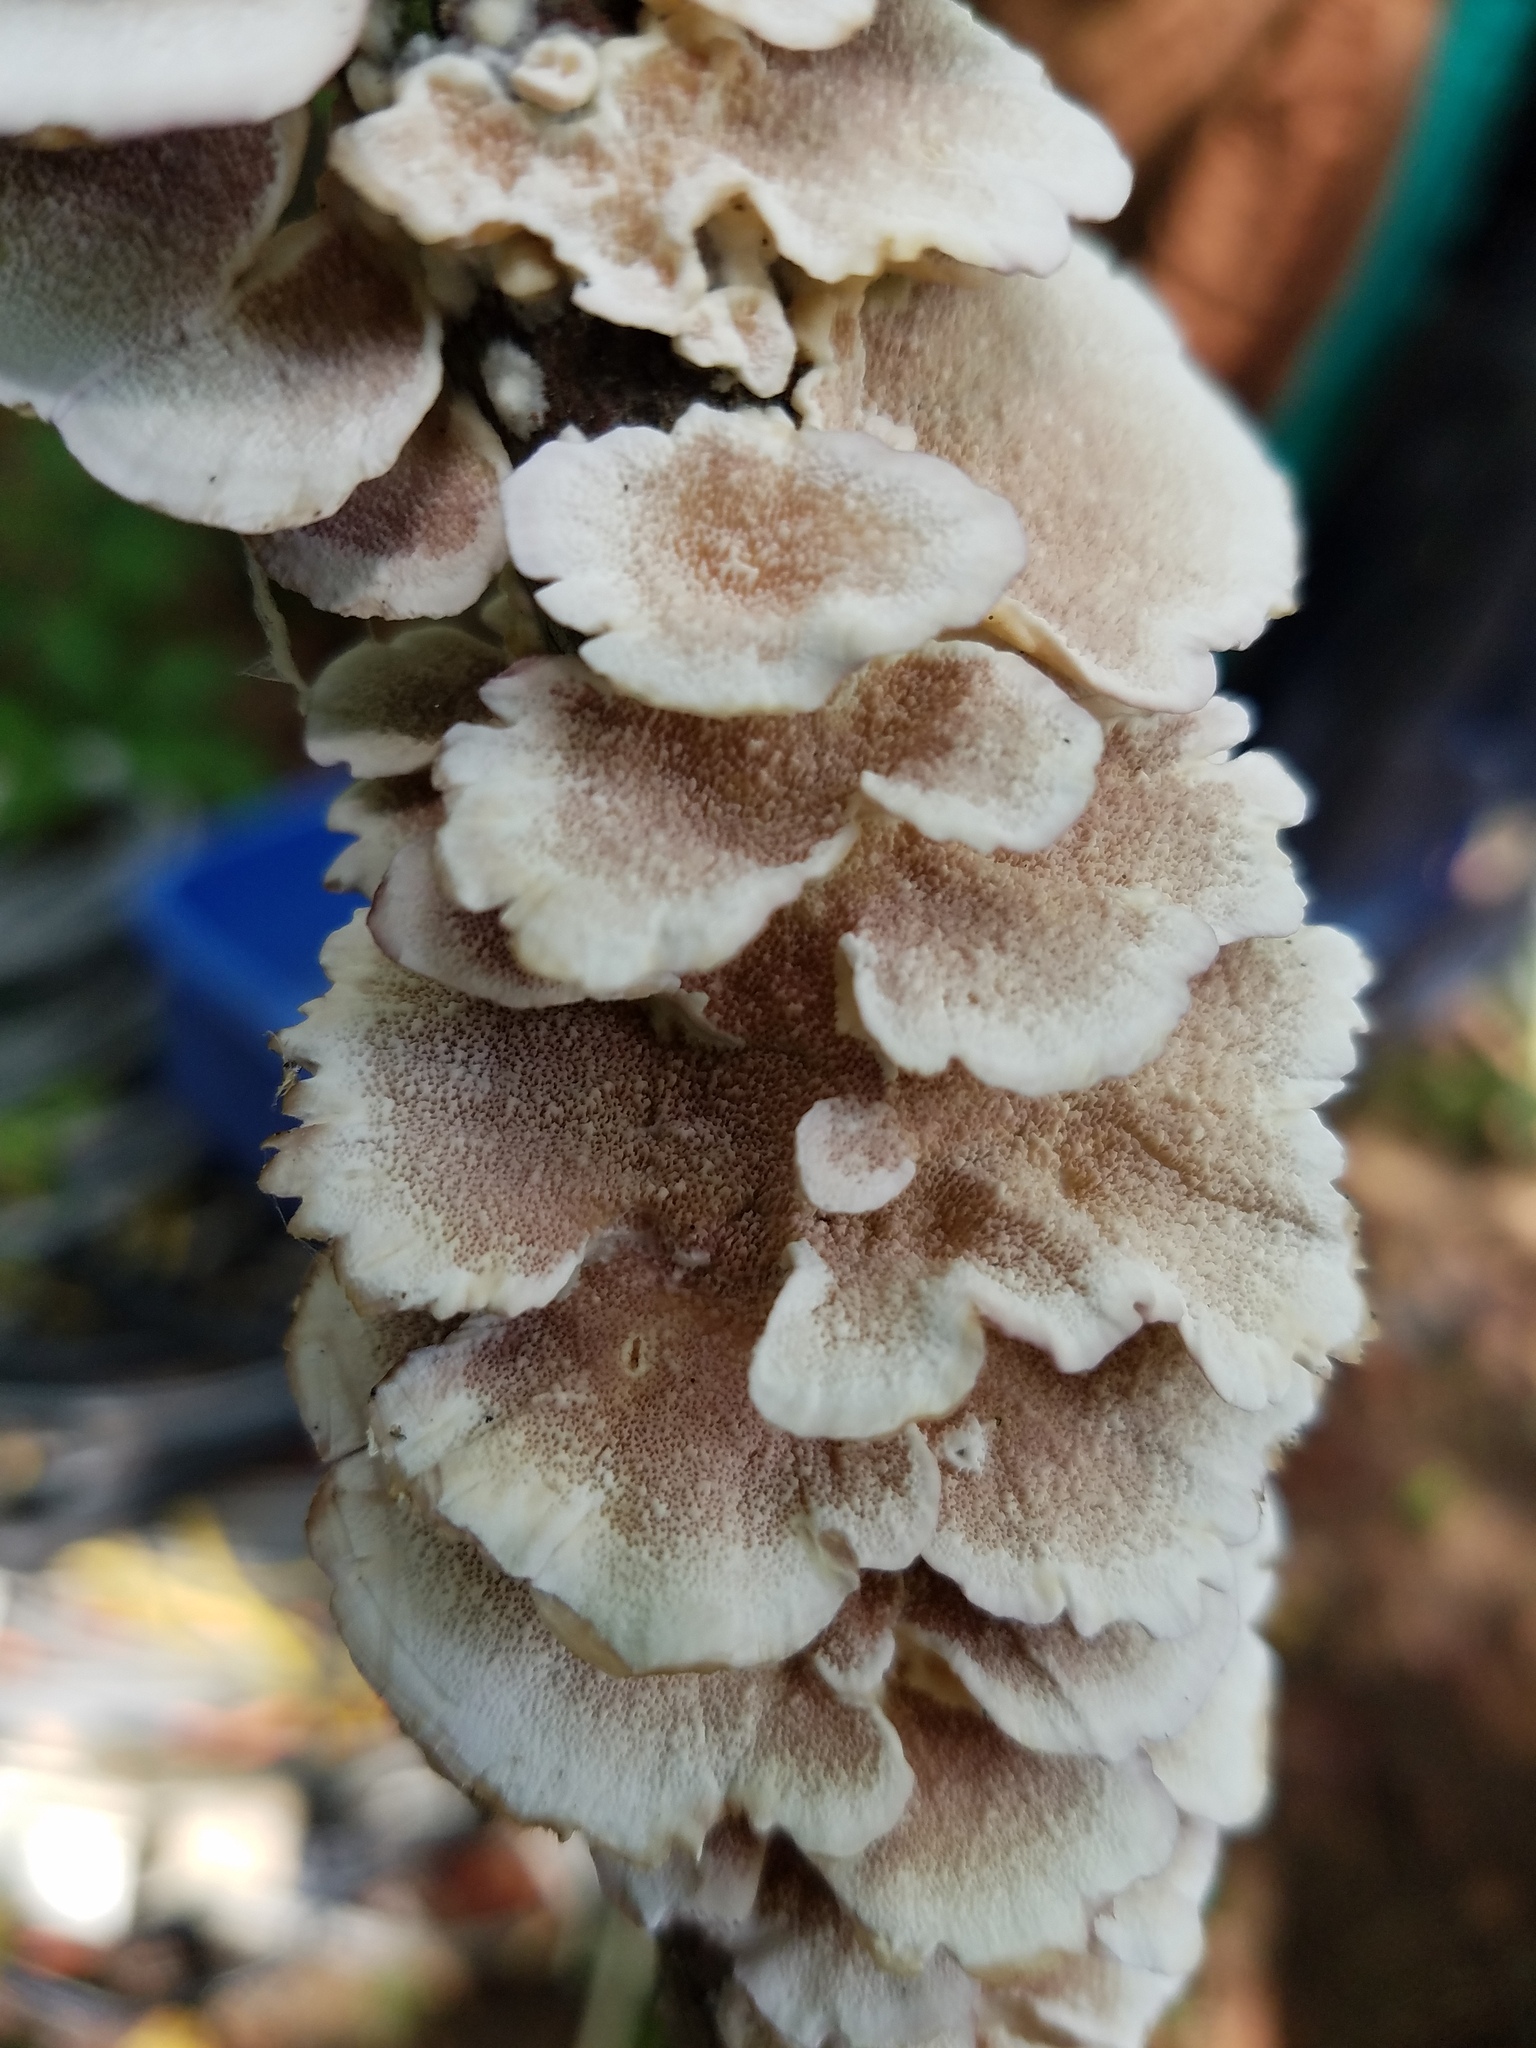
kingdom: Fungi
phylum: Basidiomycota
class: Agaricomycetes
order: Hymenochaetales
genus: Trichaptum
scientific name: Trichaptum biforme
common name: Violet-toothed polypore
